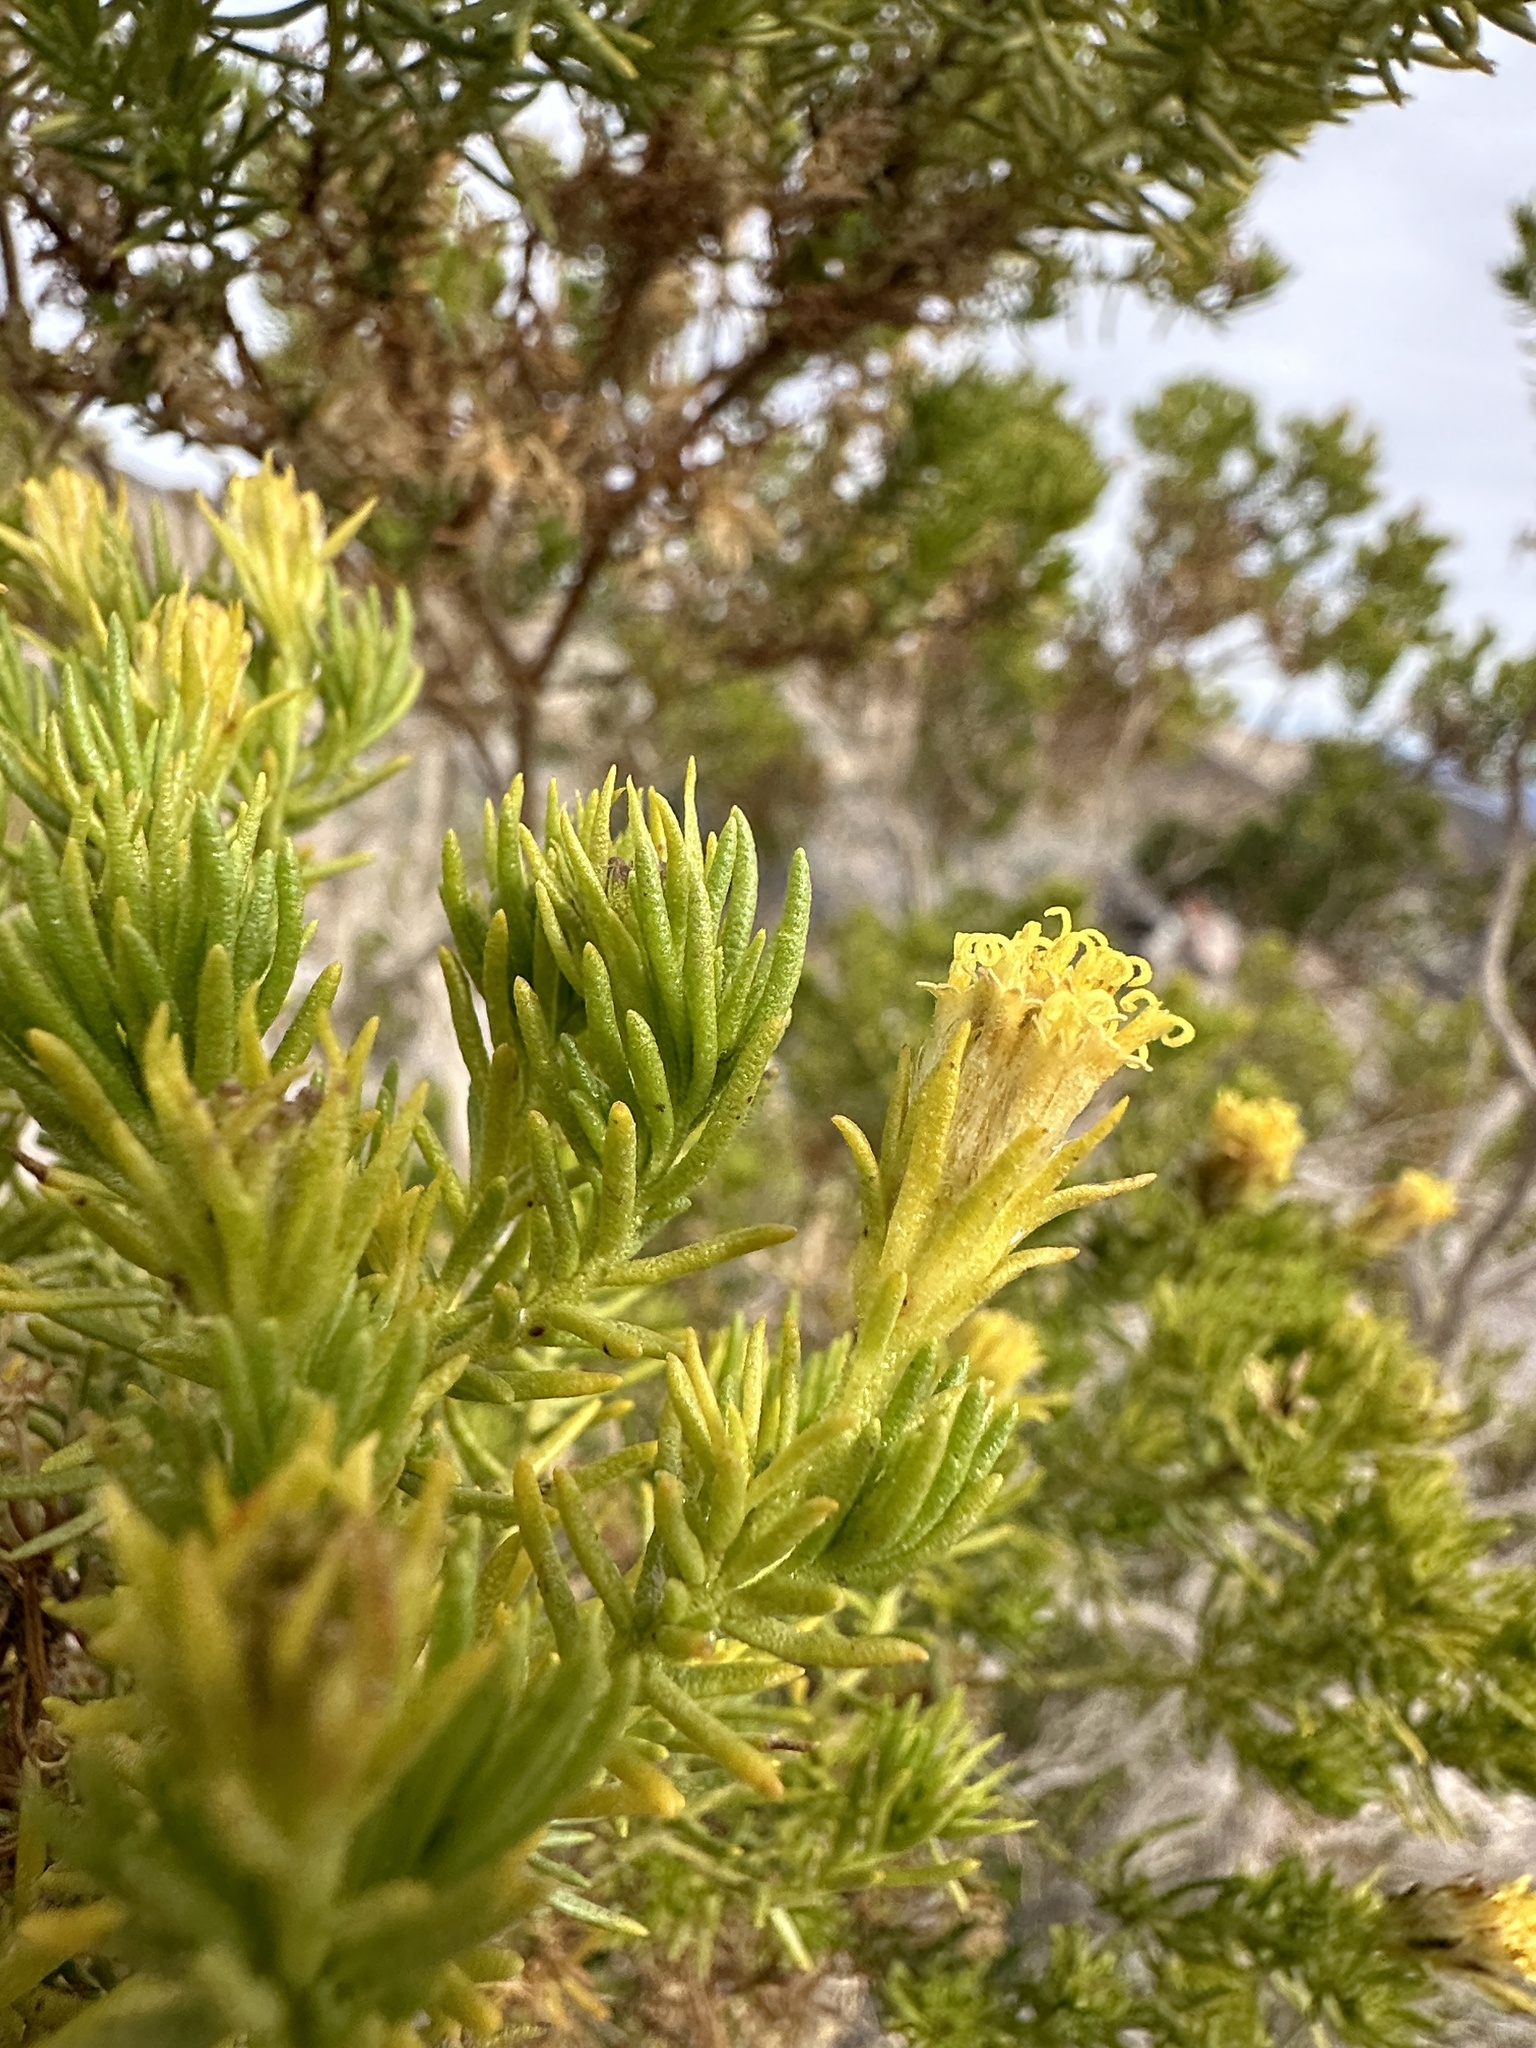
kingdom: Plantae
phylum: Tracheophyta
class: Magnoliopsida
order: Asterales
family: Asteraceae
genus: Peucephyllum
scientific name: Peucephyllum schottii
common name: Pygmy-cedar
